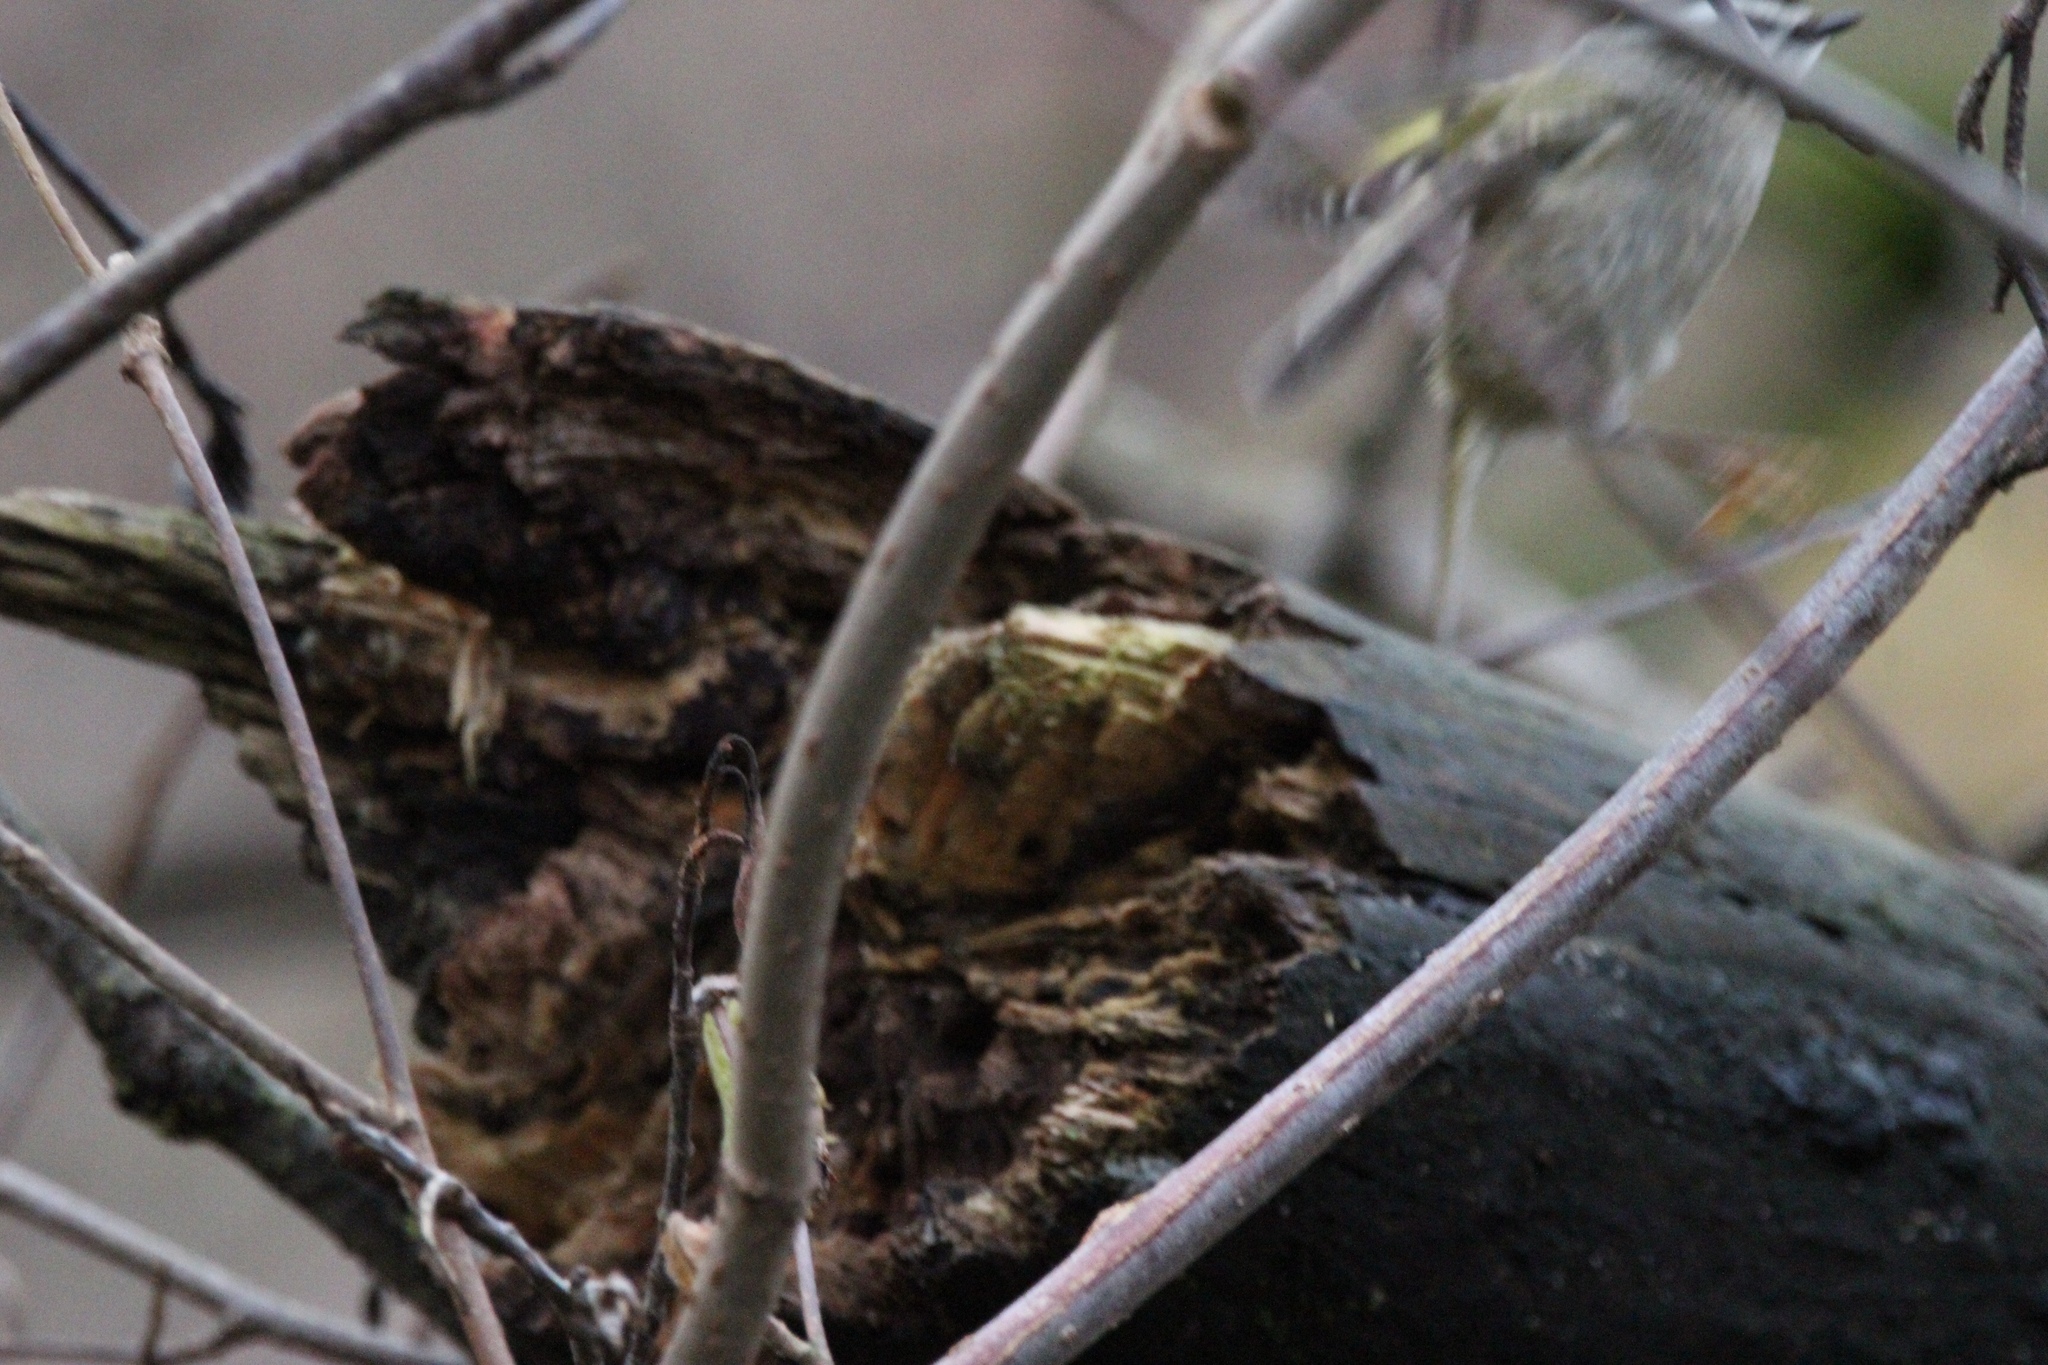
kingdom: Animalia
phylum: Chordata
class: Aves
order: Passeriformes
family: Regulidae
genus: Regulus
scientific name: Regulus satrapa
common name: Golden-crowned kinglet
